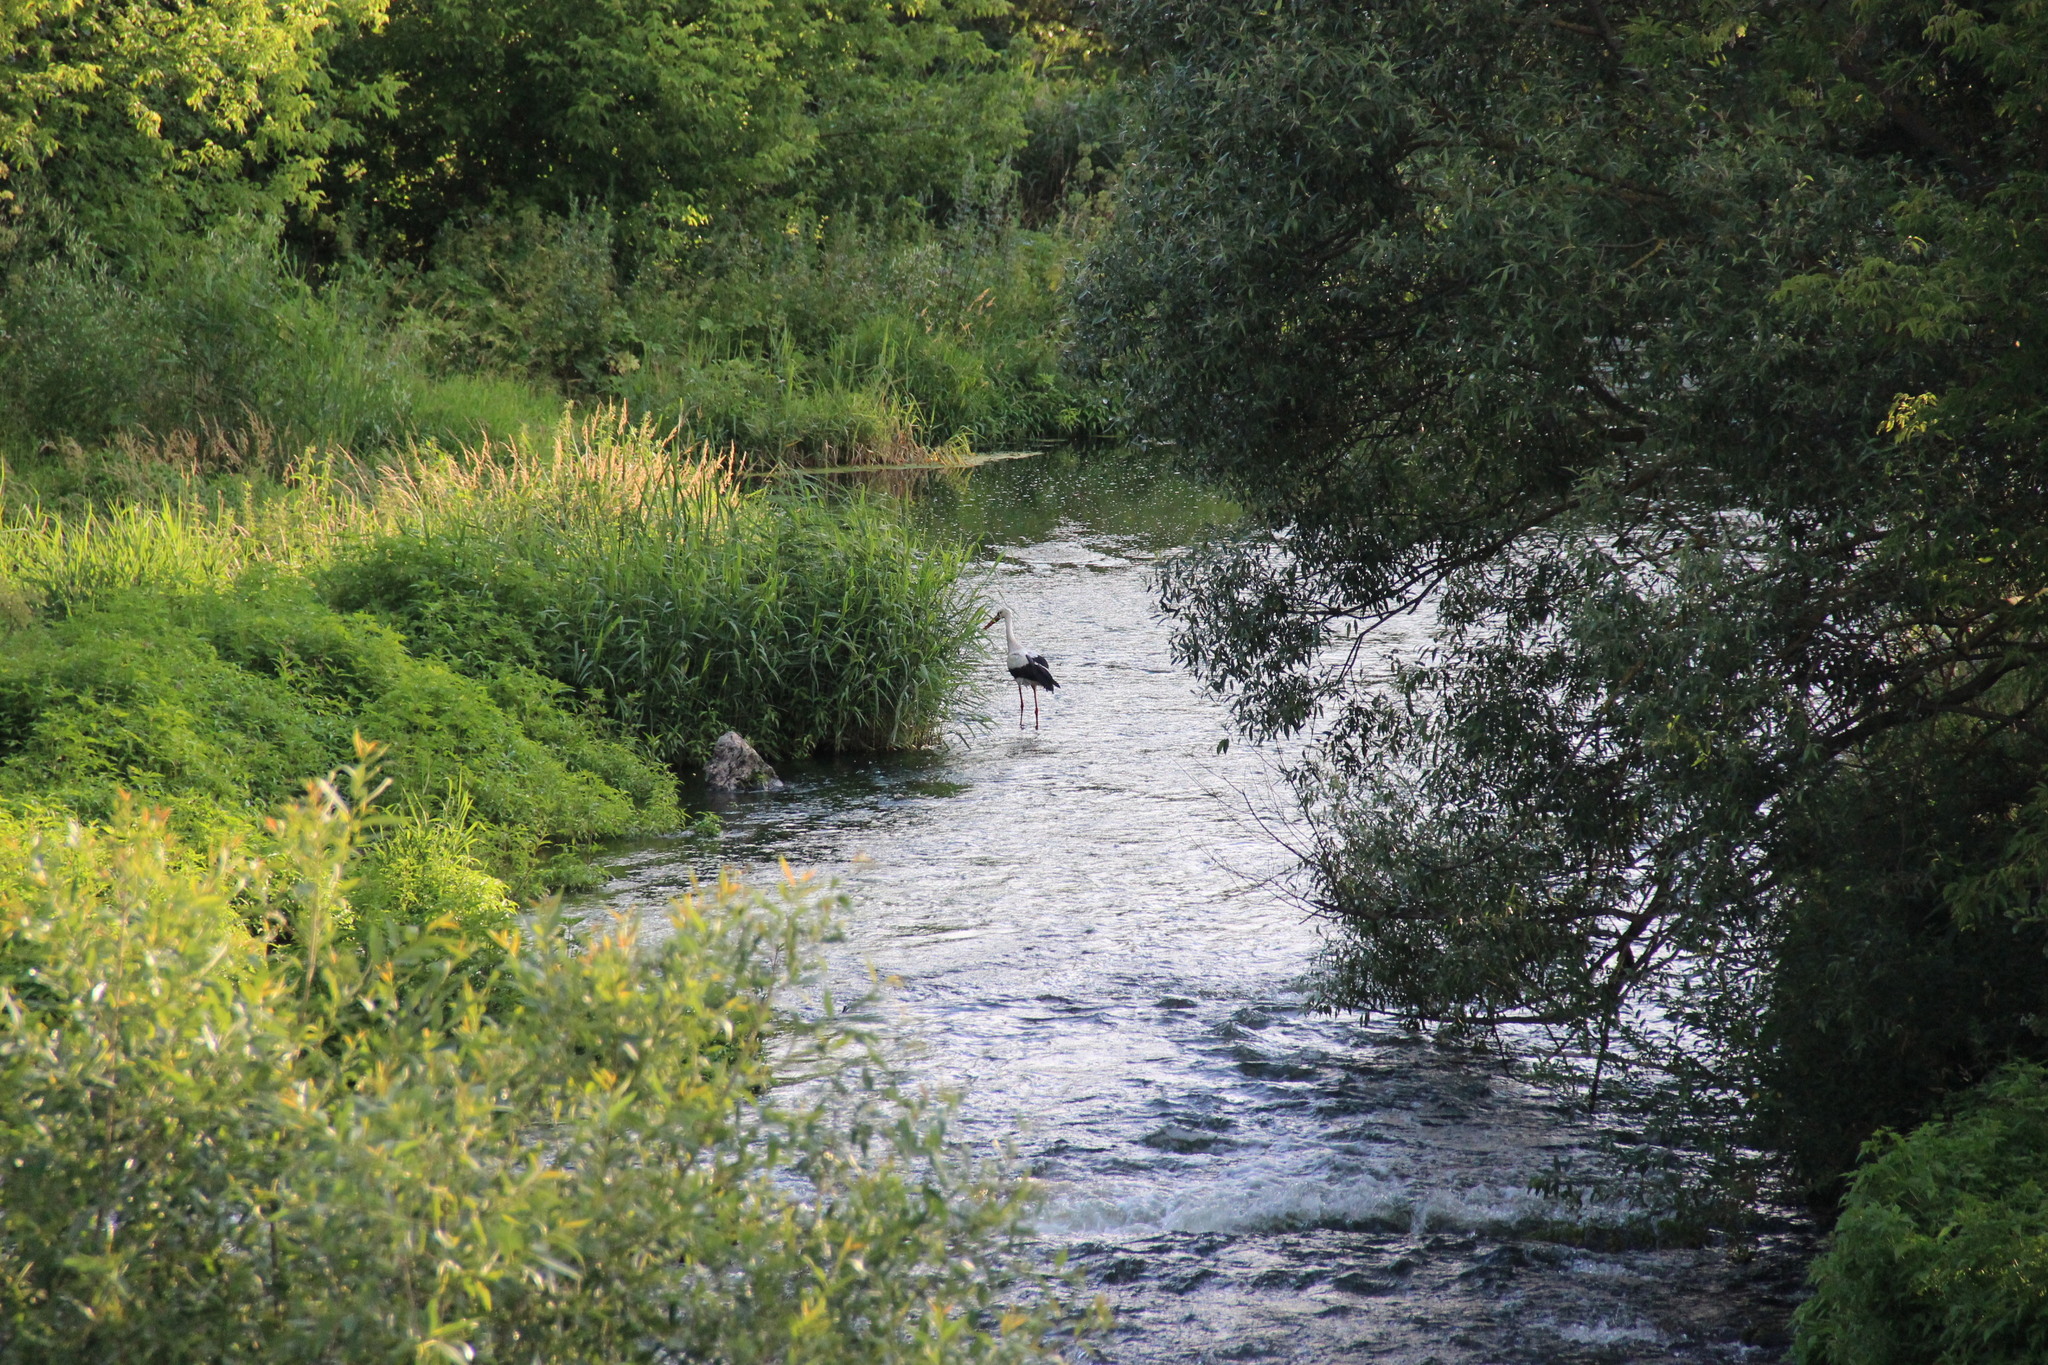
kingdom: Animalia
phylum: Chordata
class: Aves
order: Ciconiiformes
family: Ciconiidae
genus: Ciconia
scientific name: Ciconia ciconia
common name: White stork
